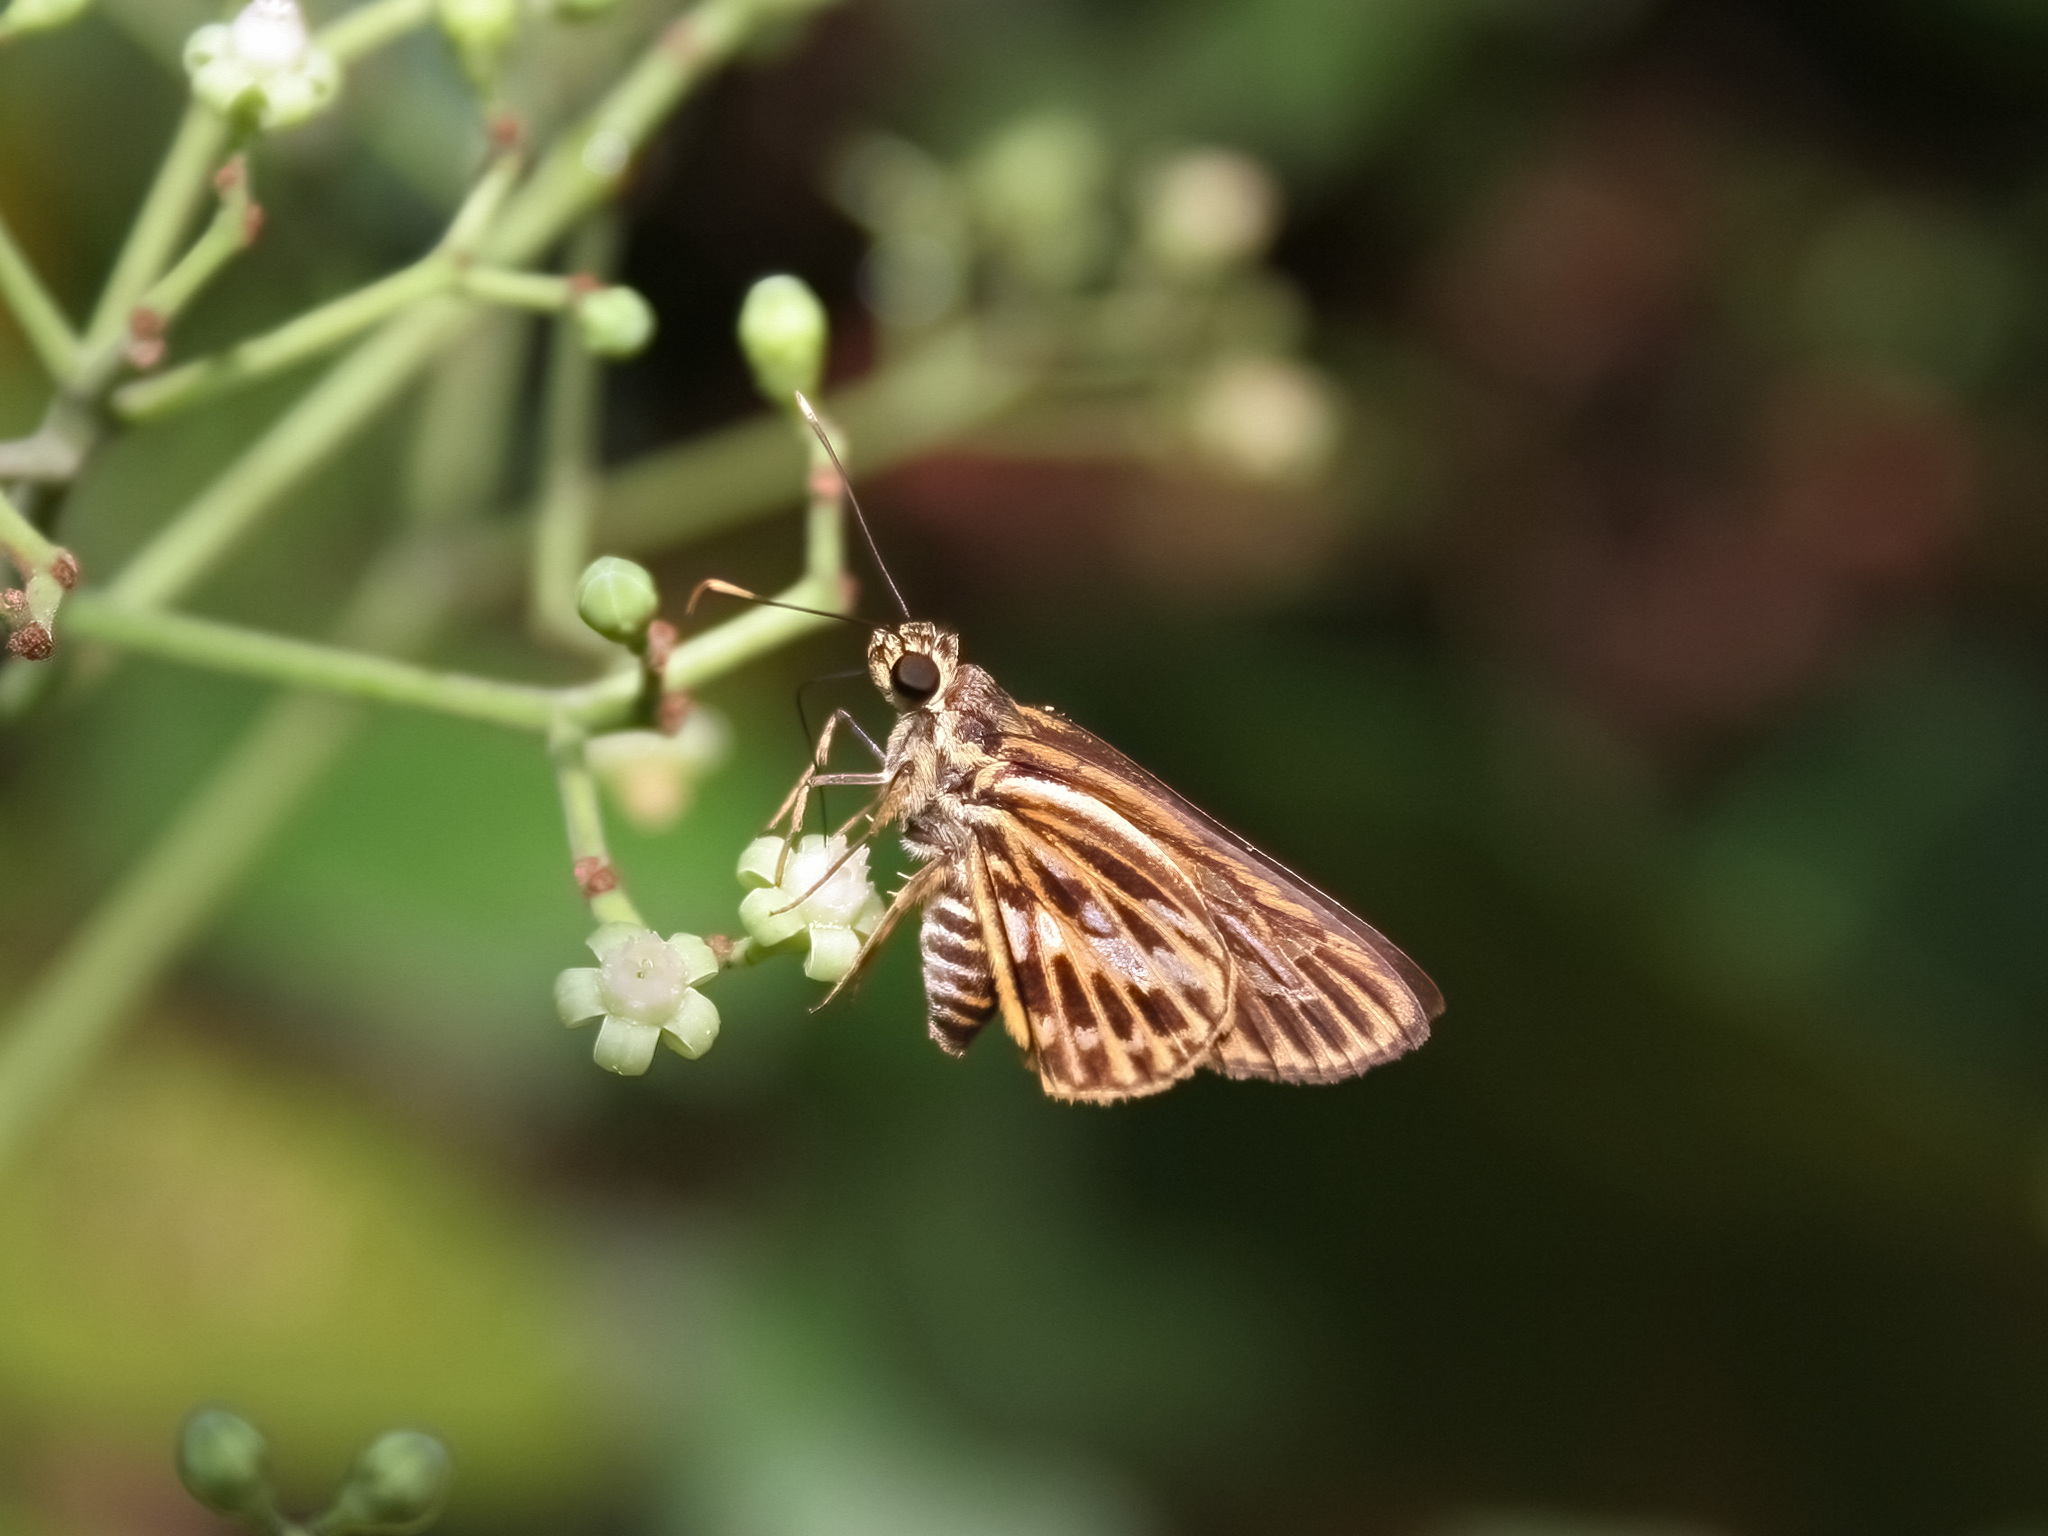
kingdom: Animalia
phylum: Arthropoda
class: Insecta
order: Lepidoptera
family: Hesperiidae
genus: Pyroneura
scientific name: Pyroneura latoia
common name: Yellow vein lancer
